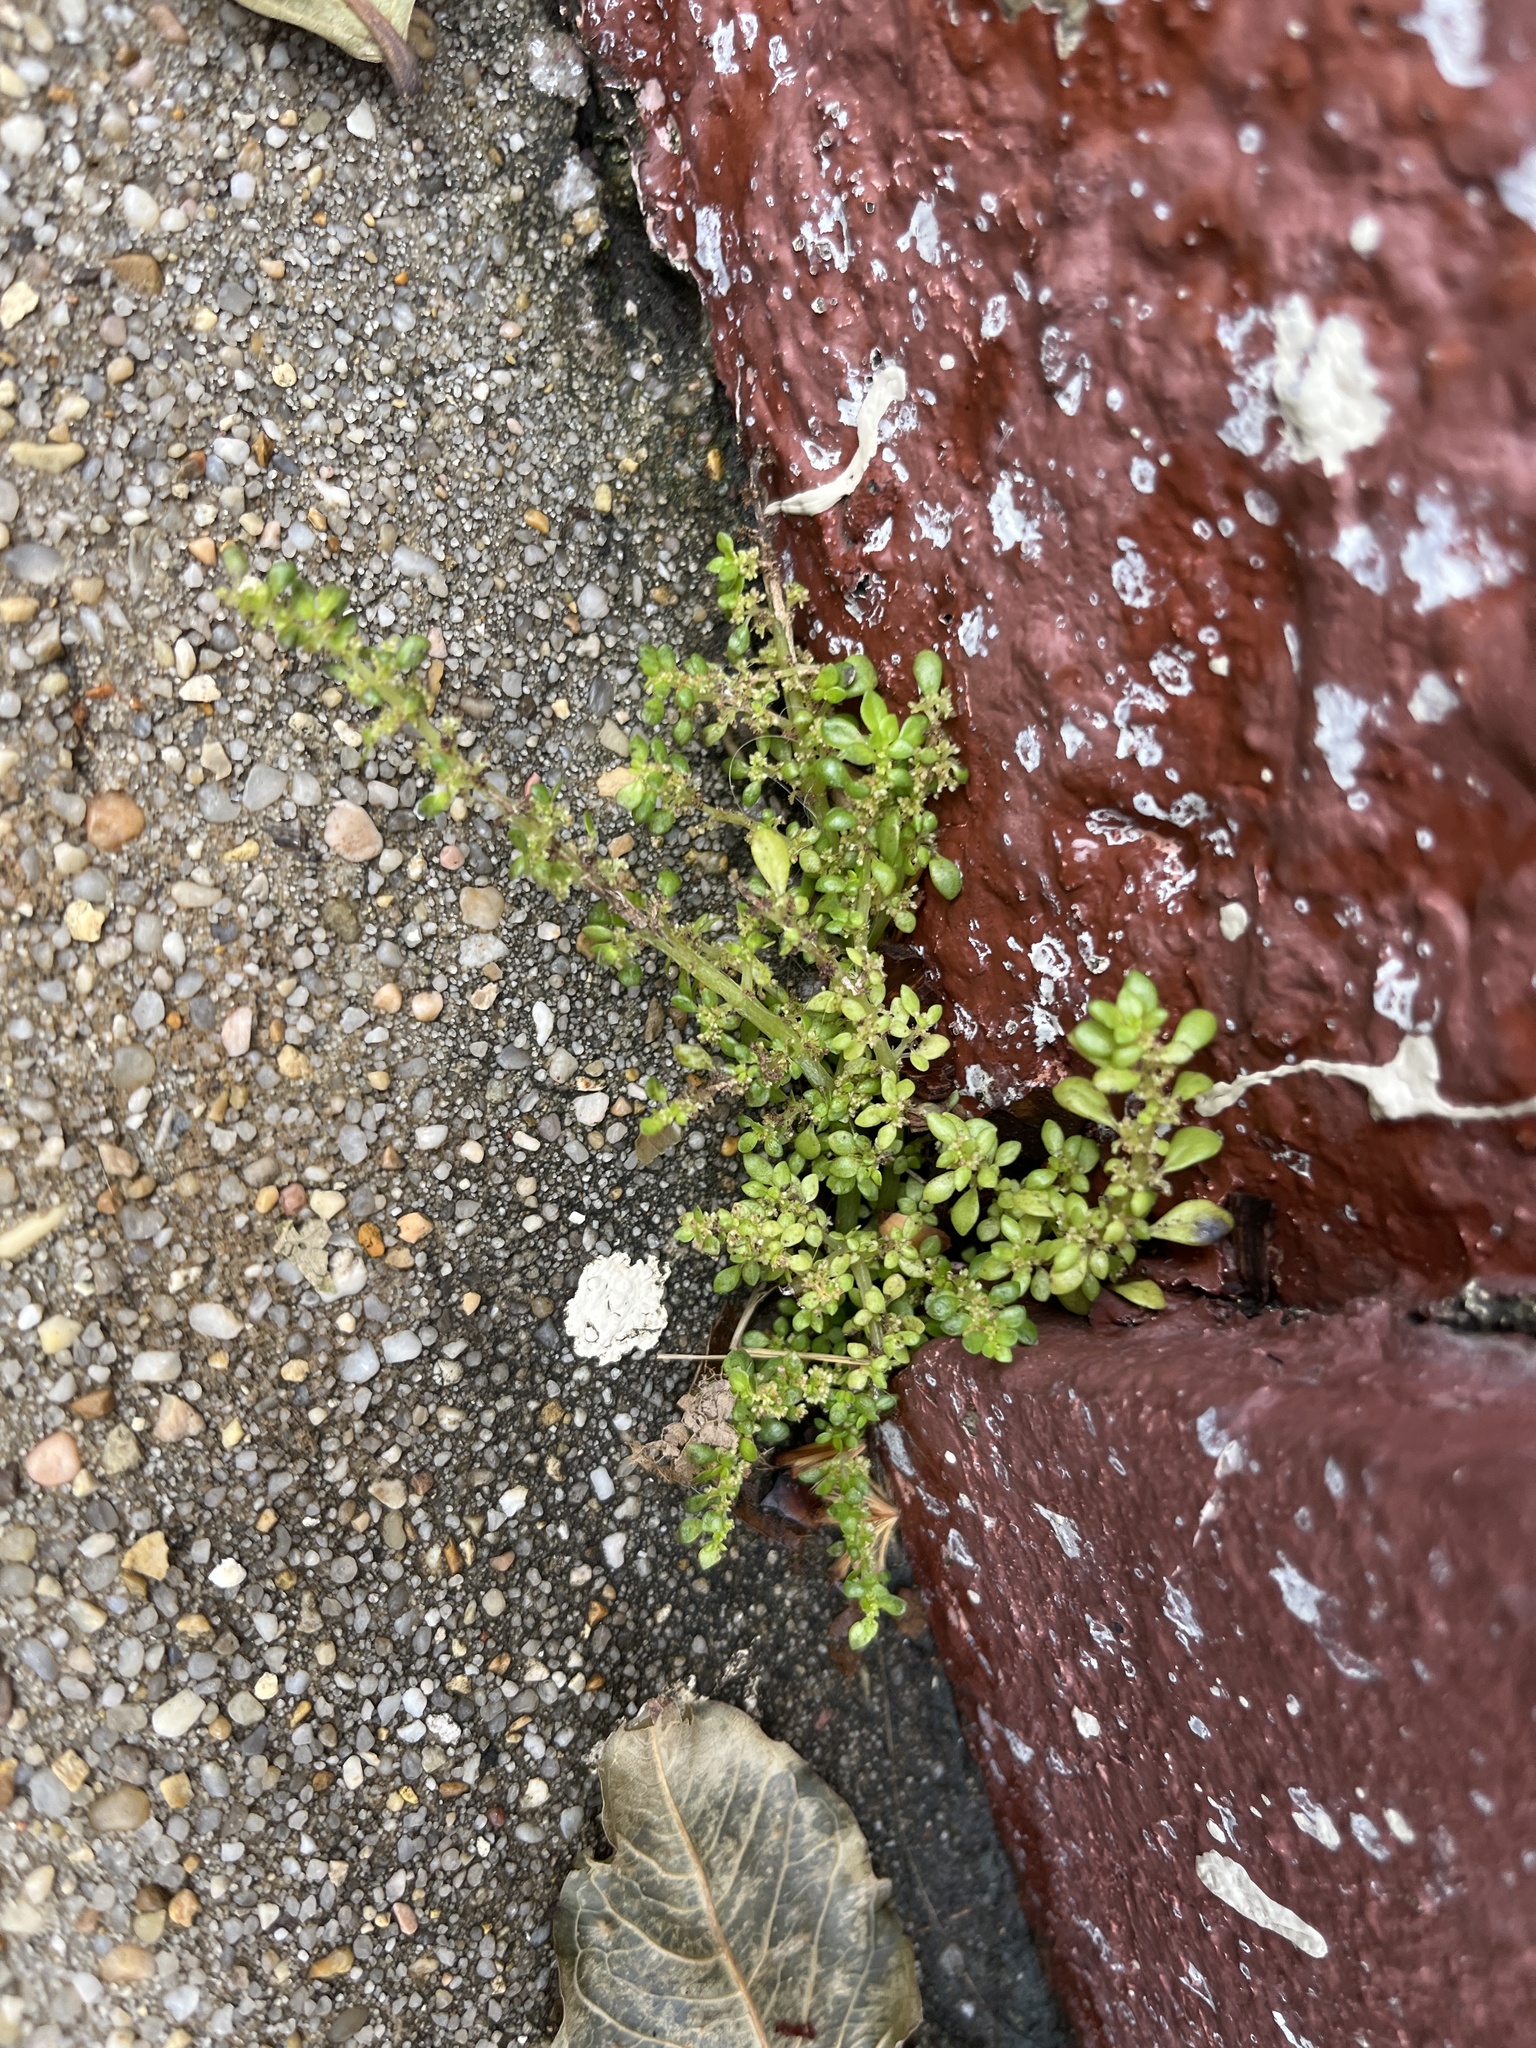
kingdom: Plantae
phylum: Tracheophyta
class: Magnoliopsida
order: Rosales
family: Urticaceae
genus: Pilea
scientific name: Pilea microphylla
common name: Artillery-plant
